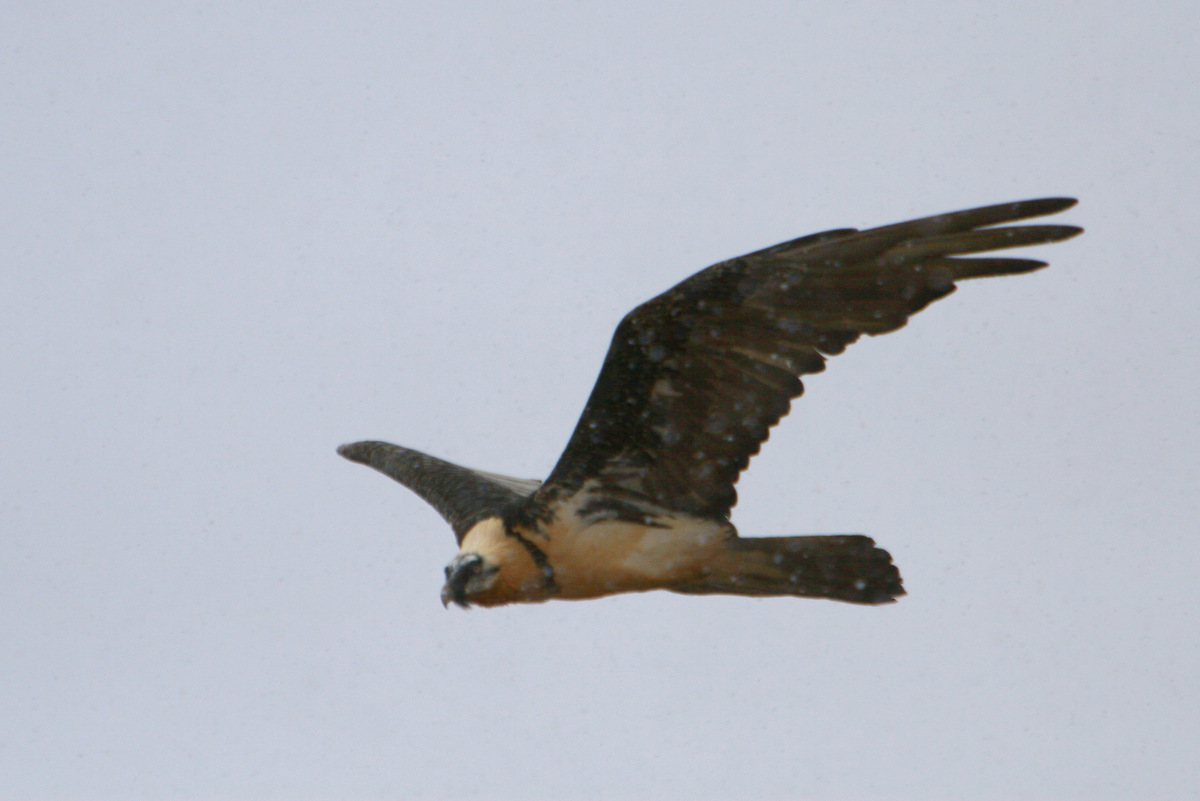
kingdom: Animalia
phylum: Chordata
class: Aves
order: Accipitriformes
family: Accipitridae
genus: Gypaetus
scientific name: Gypaetus barbatus
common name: Bearded vulture
